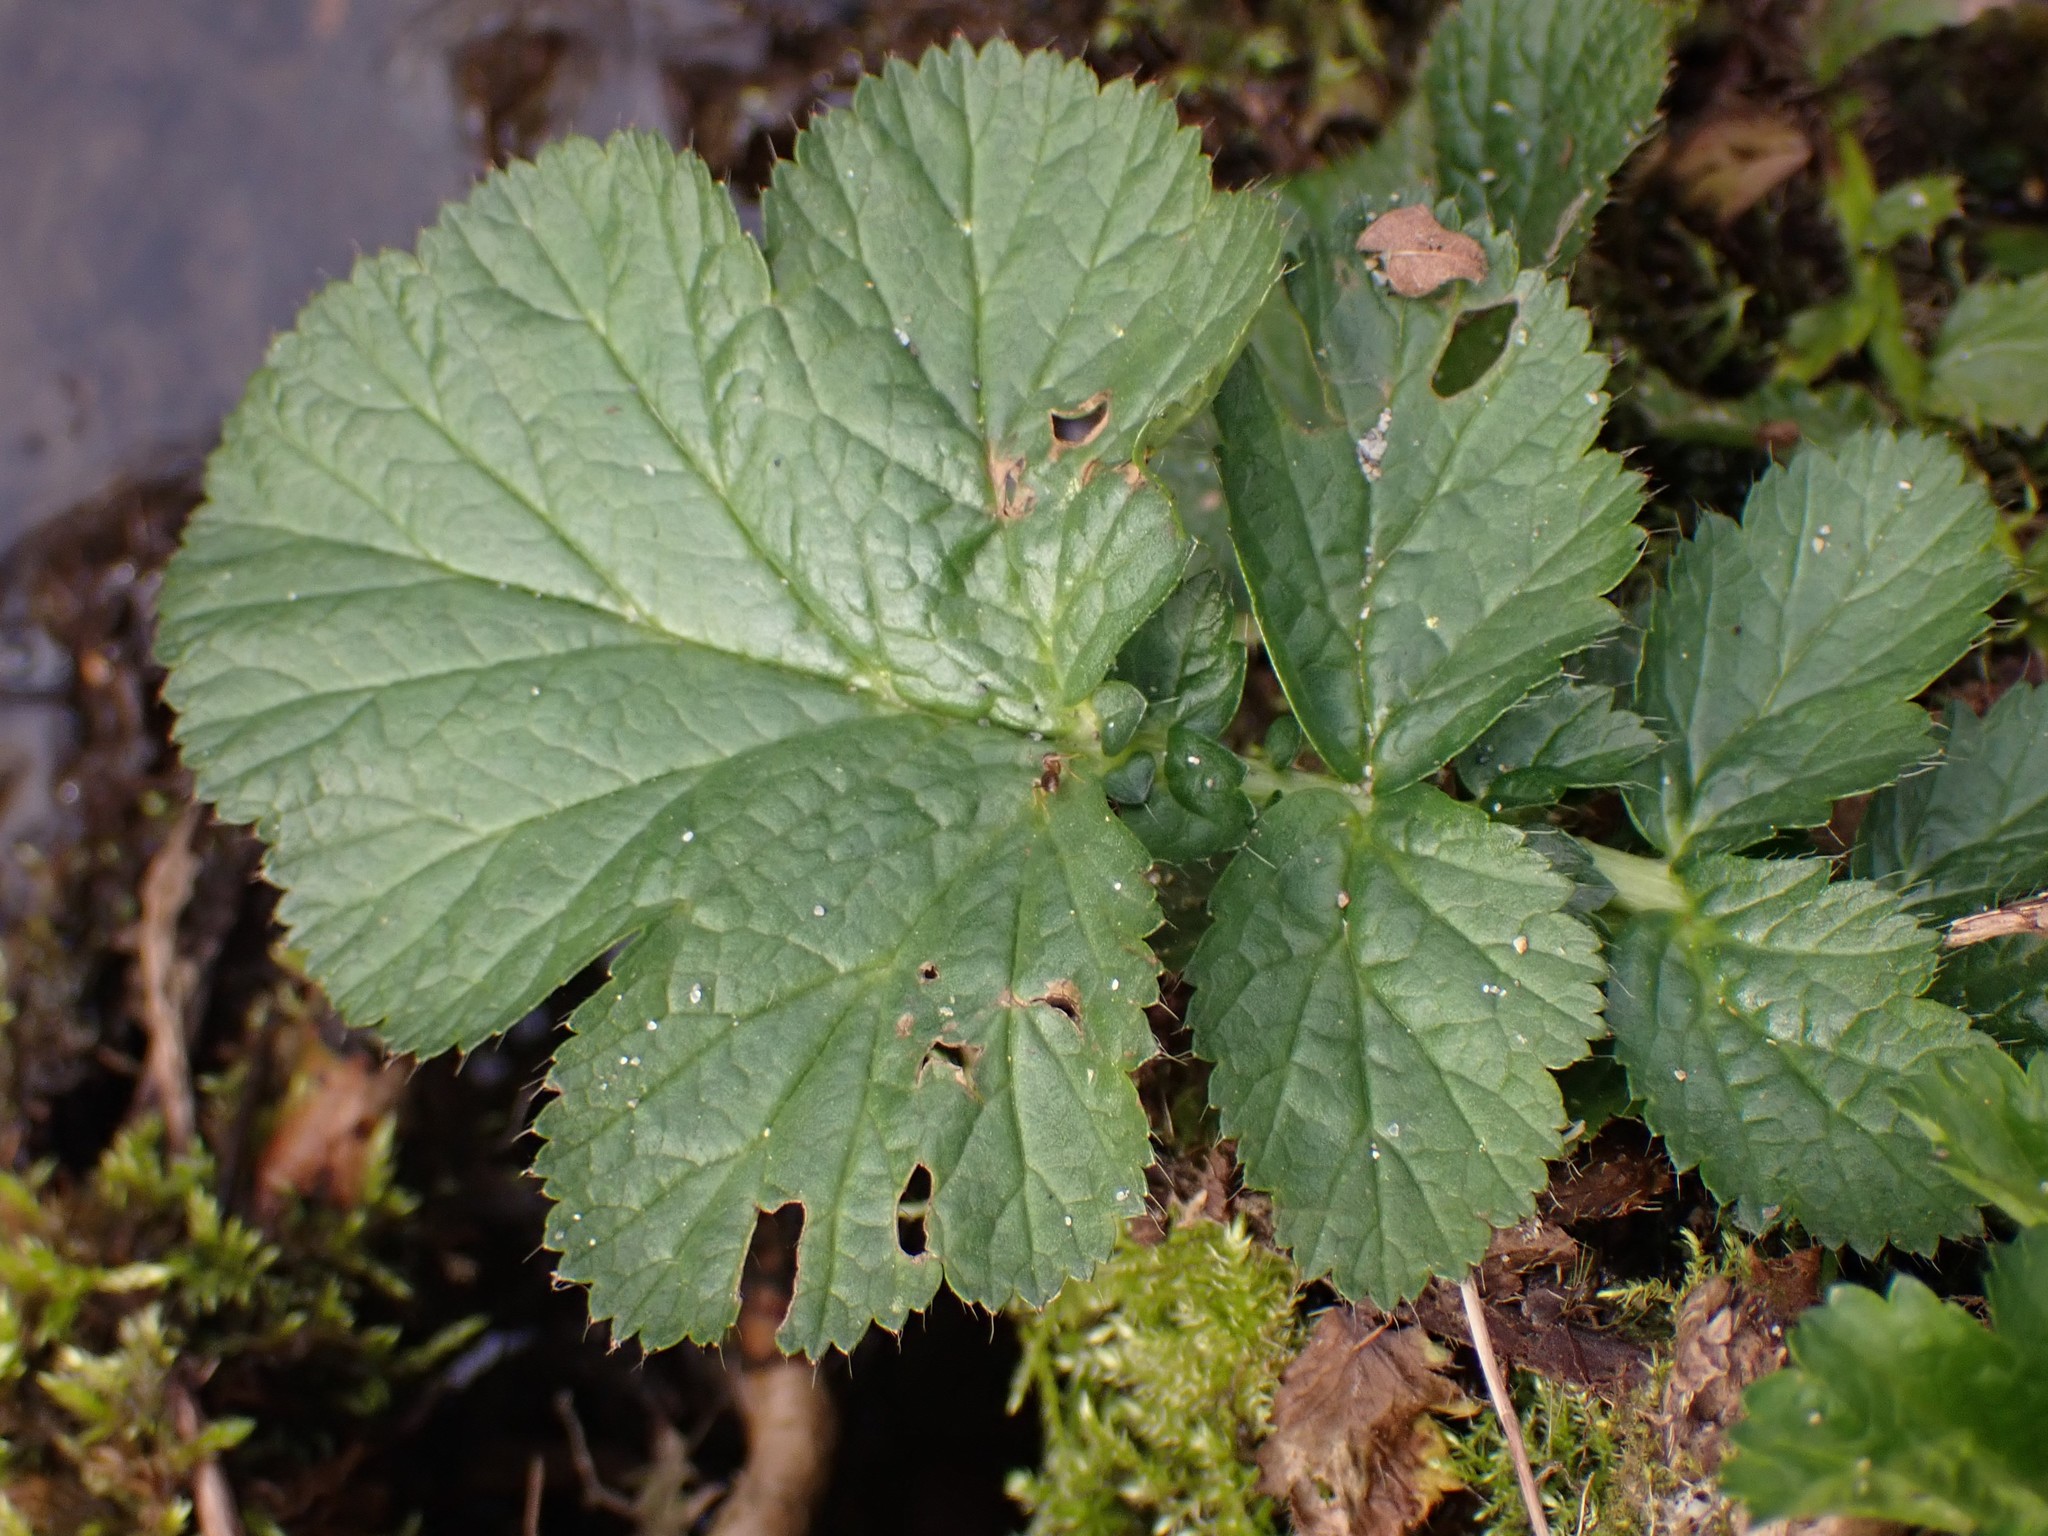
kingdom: Plantae
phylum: Tracheophyta
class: Magnoliopsida
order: Rosales
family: Rosaceae
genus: Geum
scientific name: Geum macrophyllum
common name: Large-leaved avens
